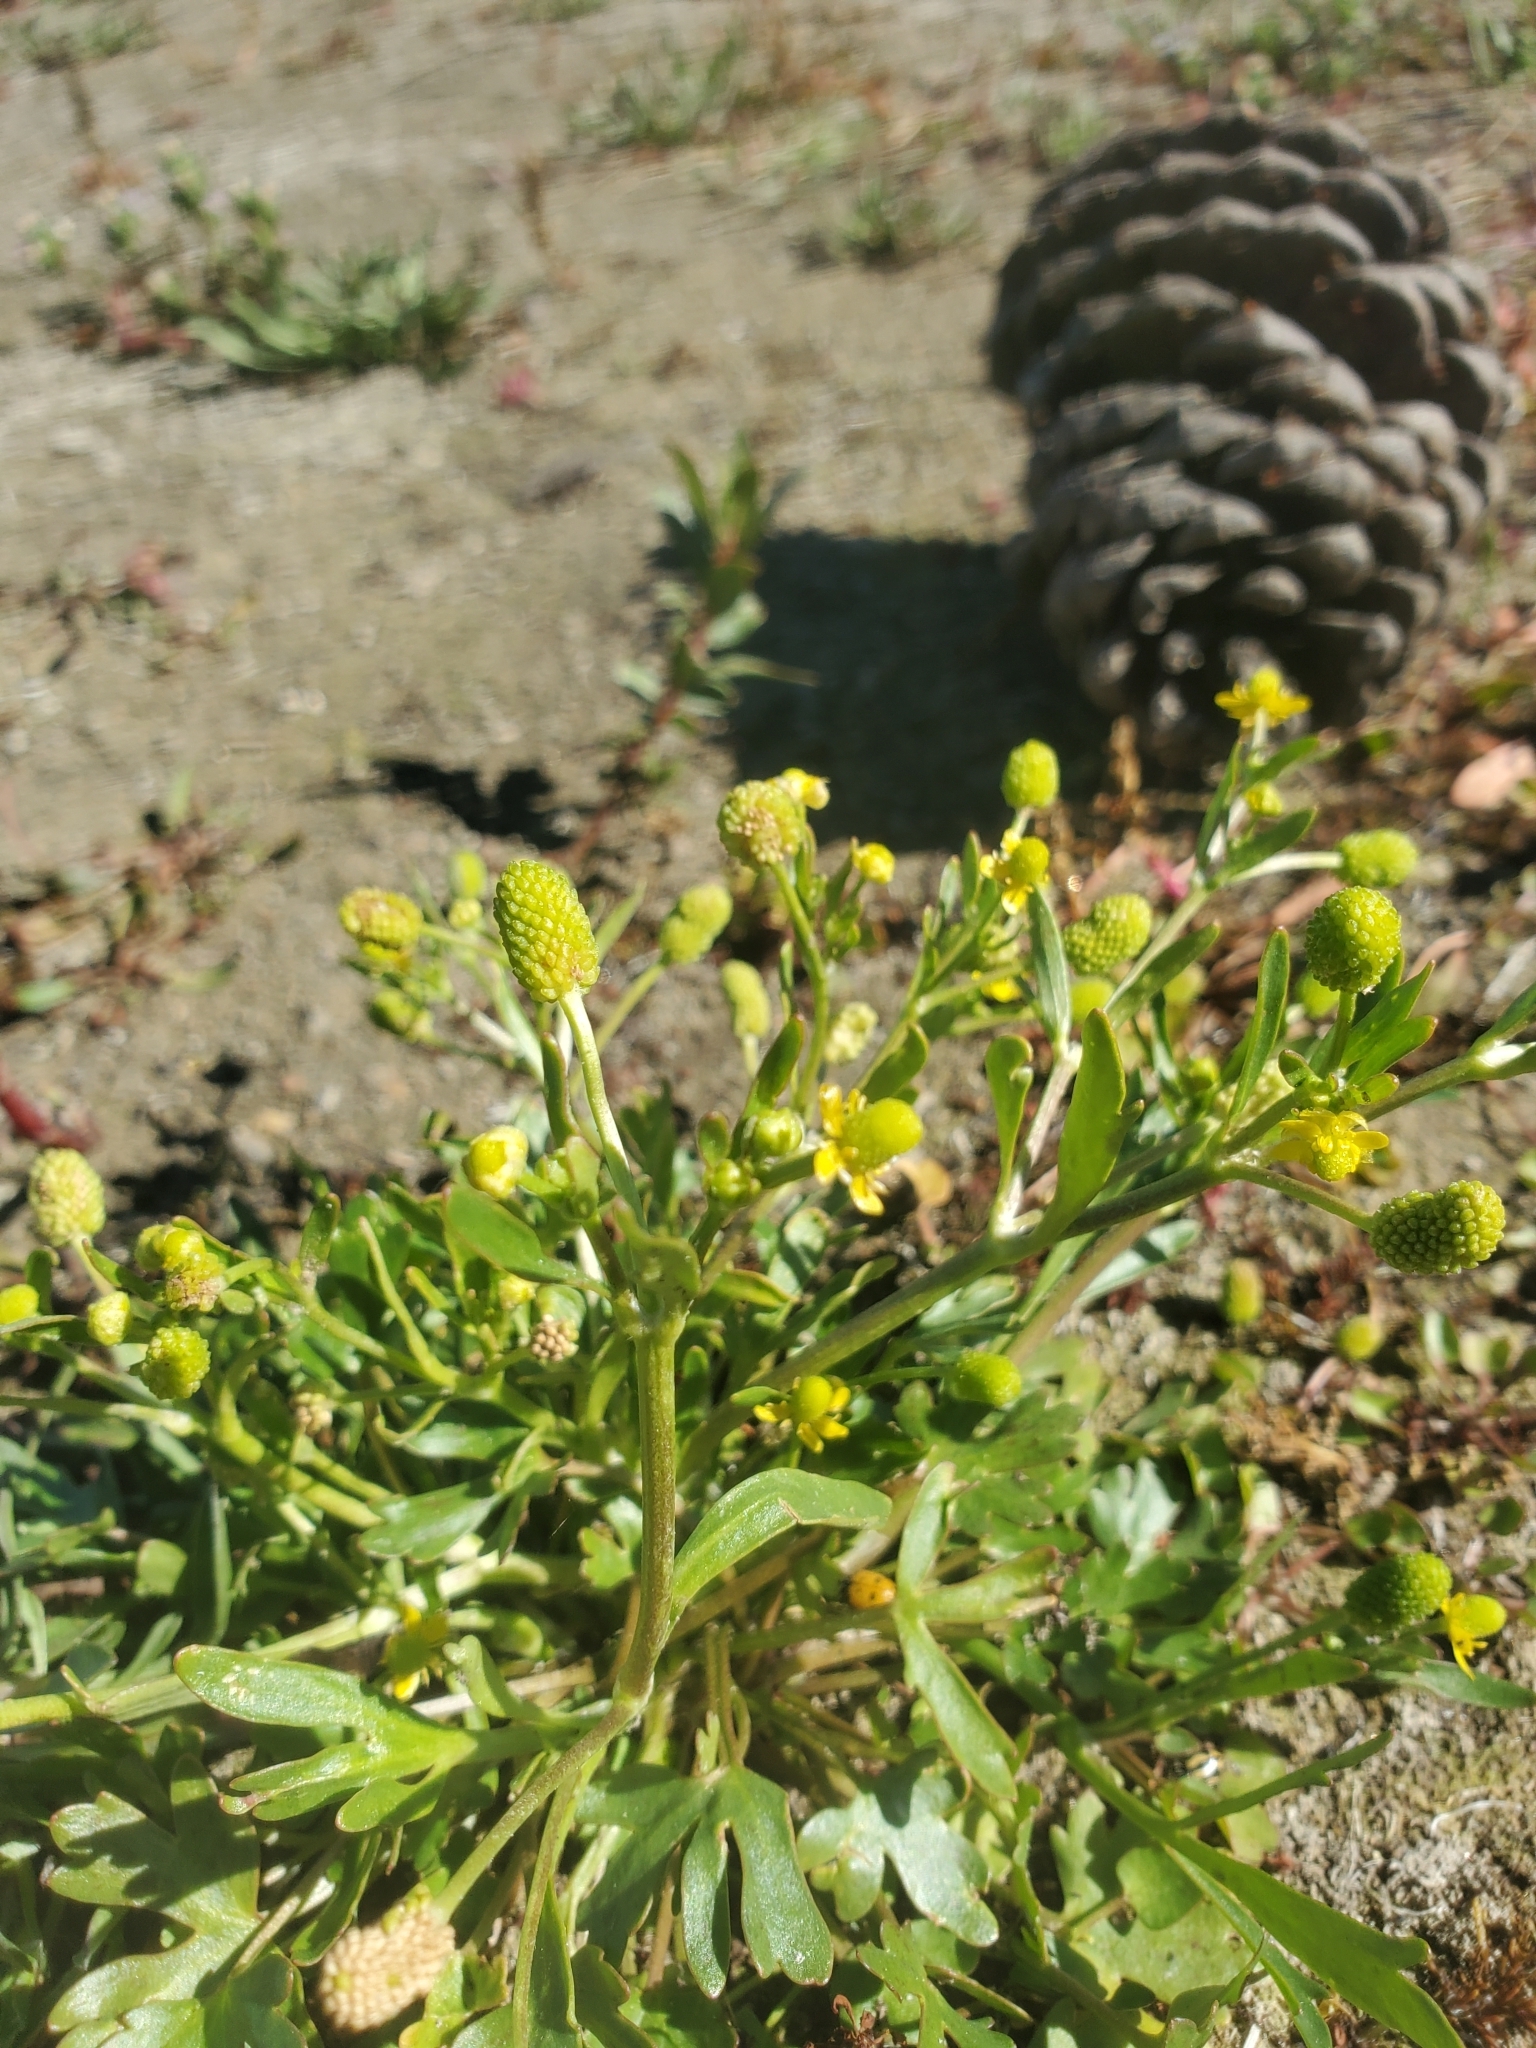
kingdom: Plantae
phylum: Tracheophyta
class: Magnoliopsida
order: Ranunculales
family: Ranunculaceae
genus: Ranunculus
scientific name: Ranunculus sceleratus
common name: Celery-leaved buttercup
